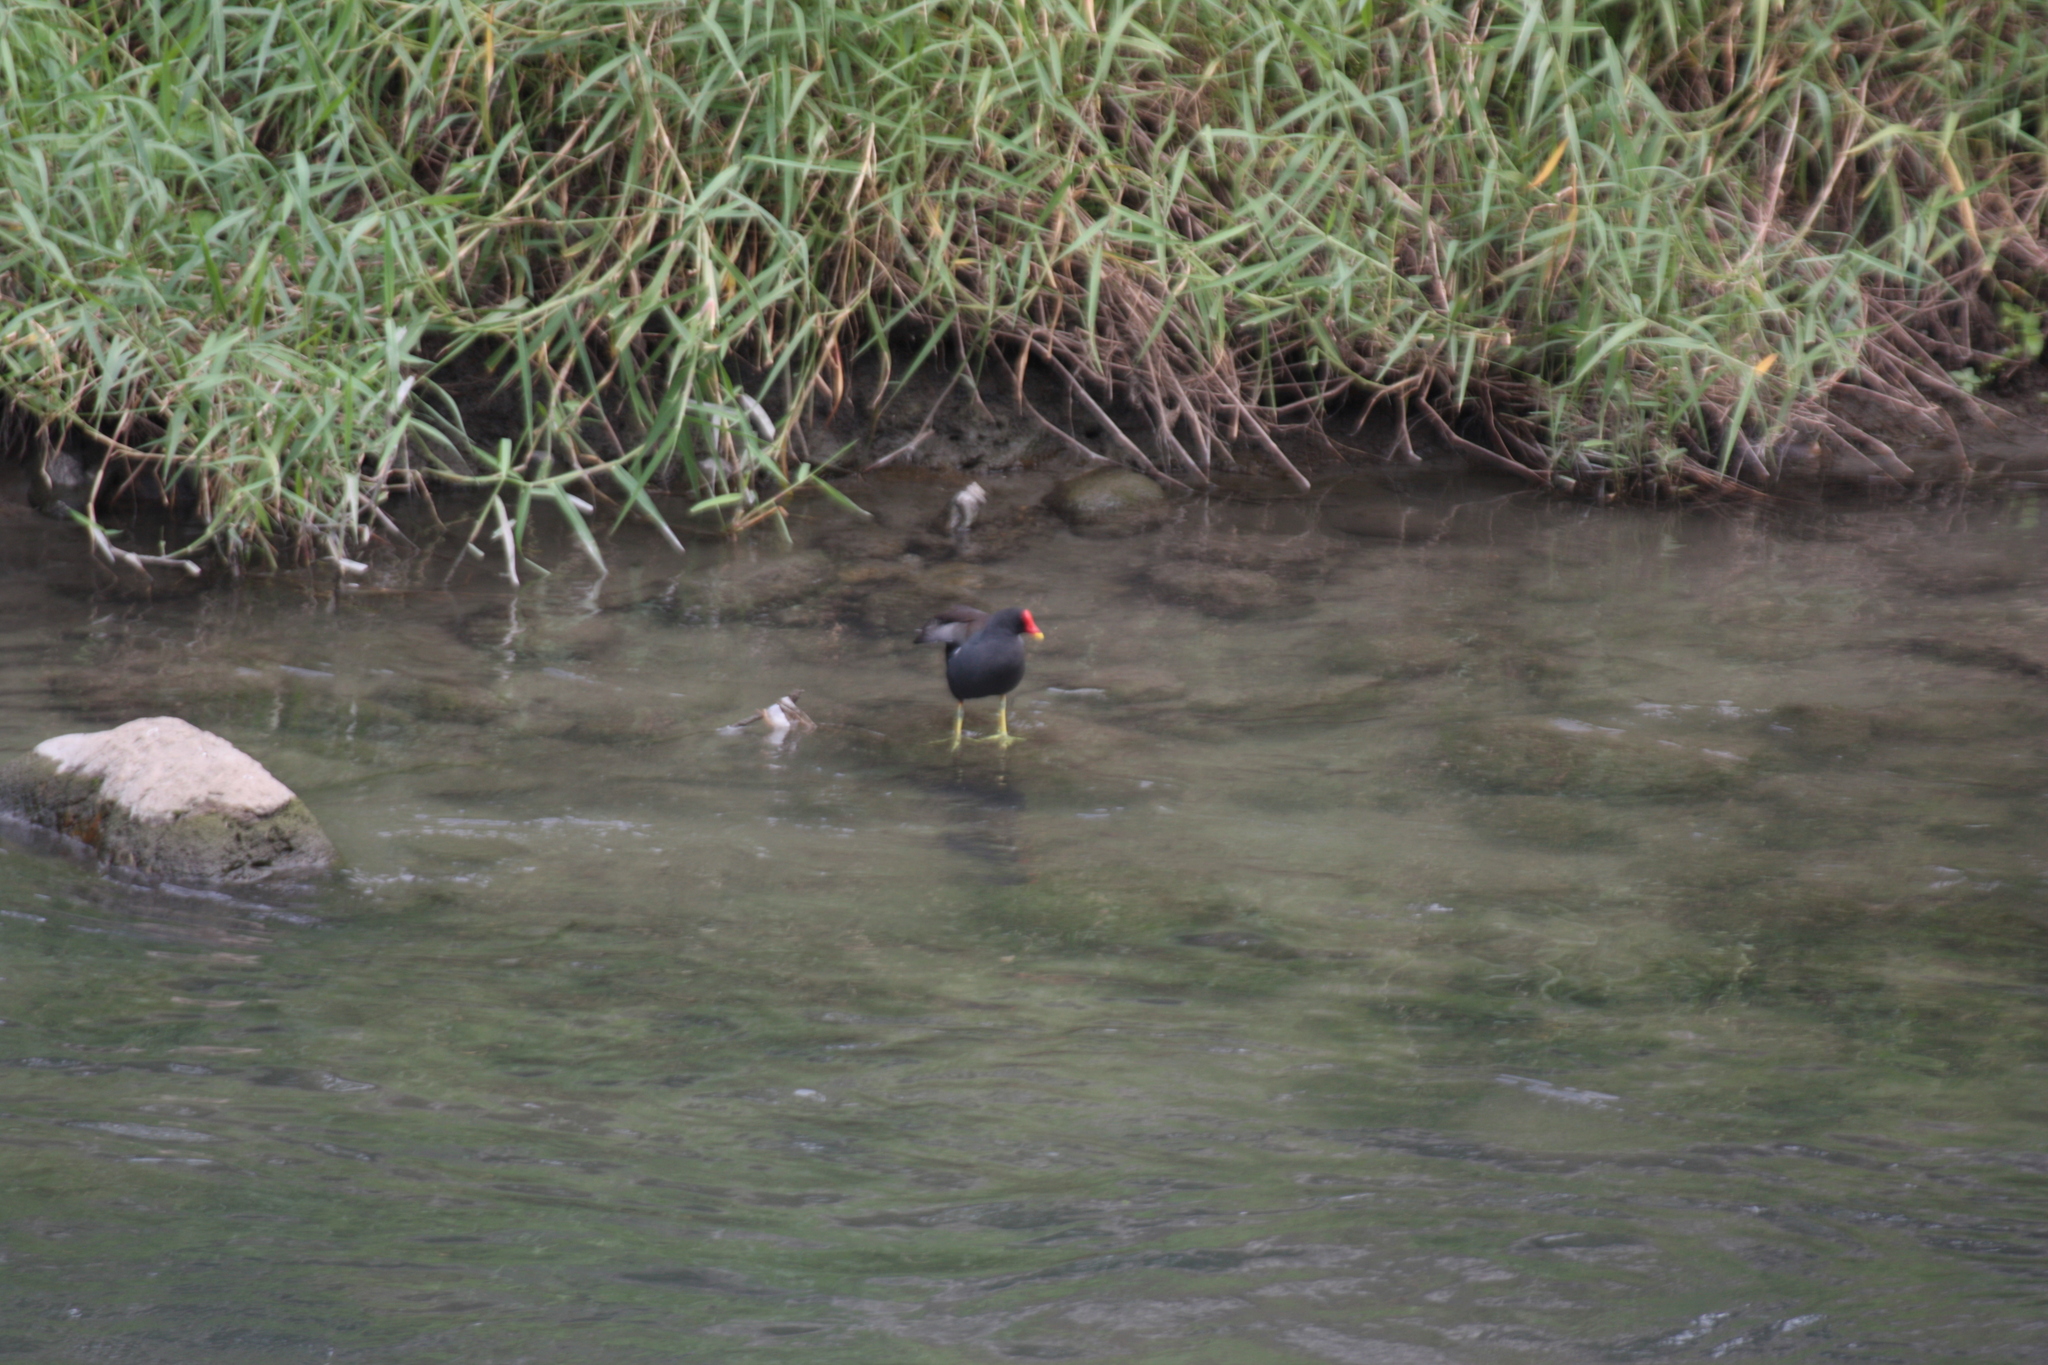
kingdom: Animalia
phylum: Chordata
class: Aves
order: Gruiformes
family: Rallidae
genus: Gallinula
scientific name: Gallinula chloropus
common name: Common moorhen
